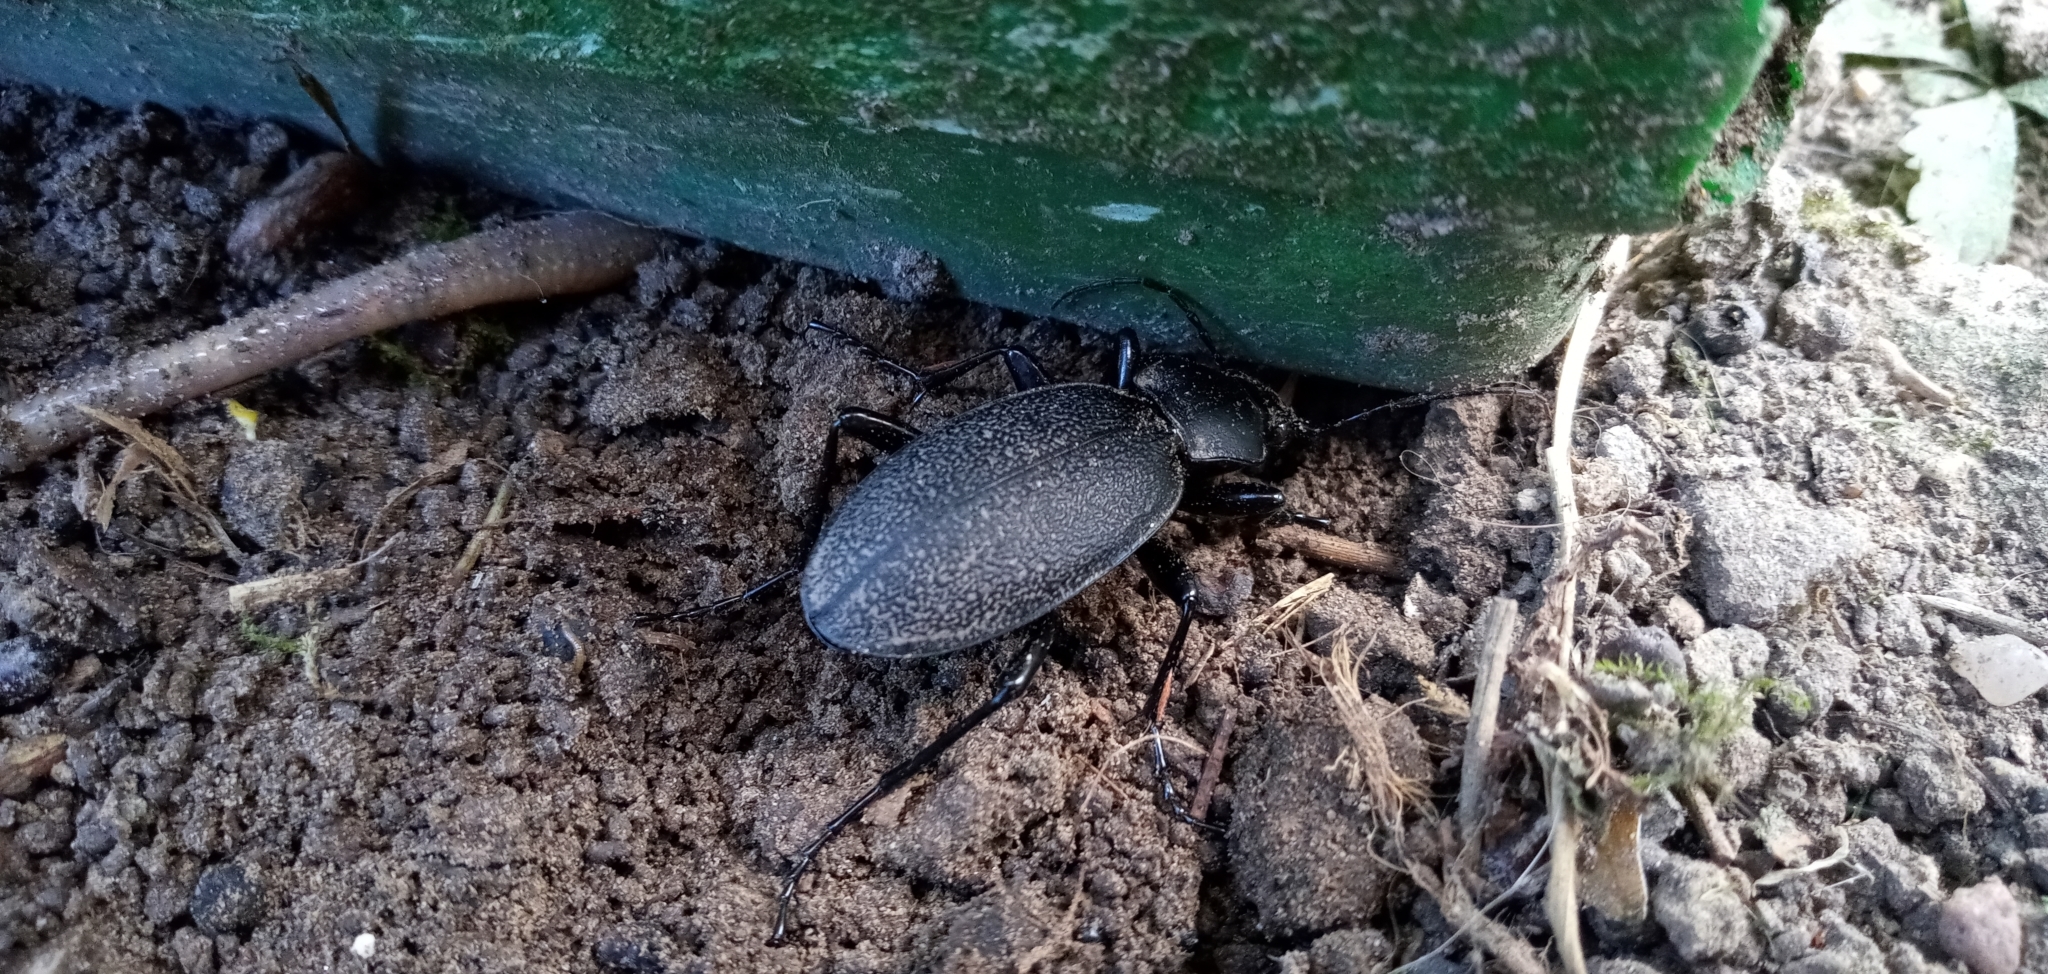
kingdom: Animalia
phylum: Arthropoda
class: Insecta
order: Coleoptera
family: Carabidae
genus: Carabus
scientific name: Carabus coriaceus
